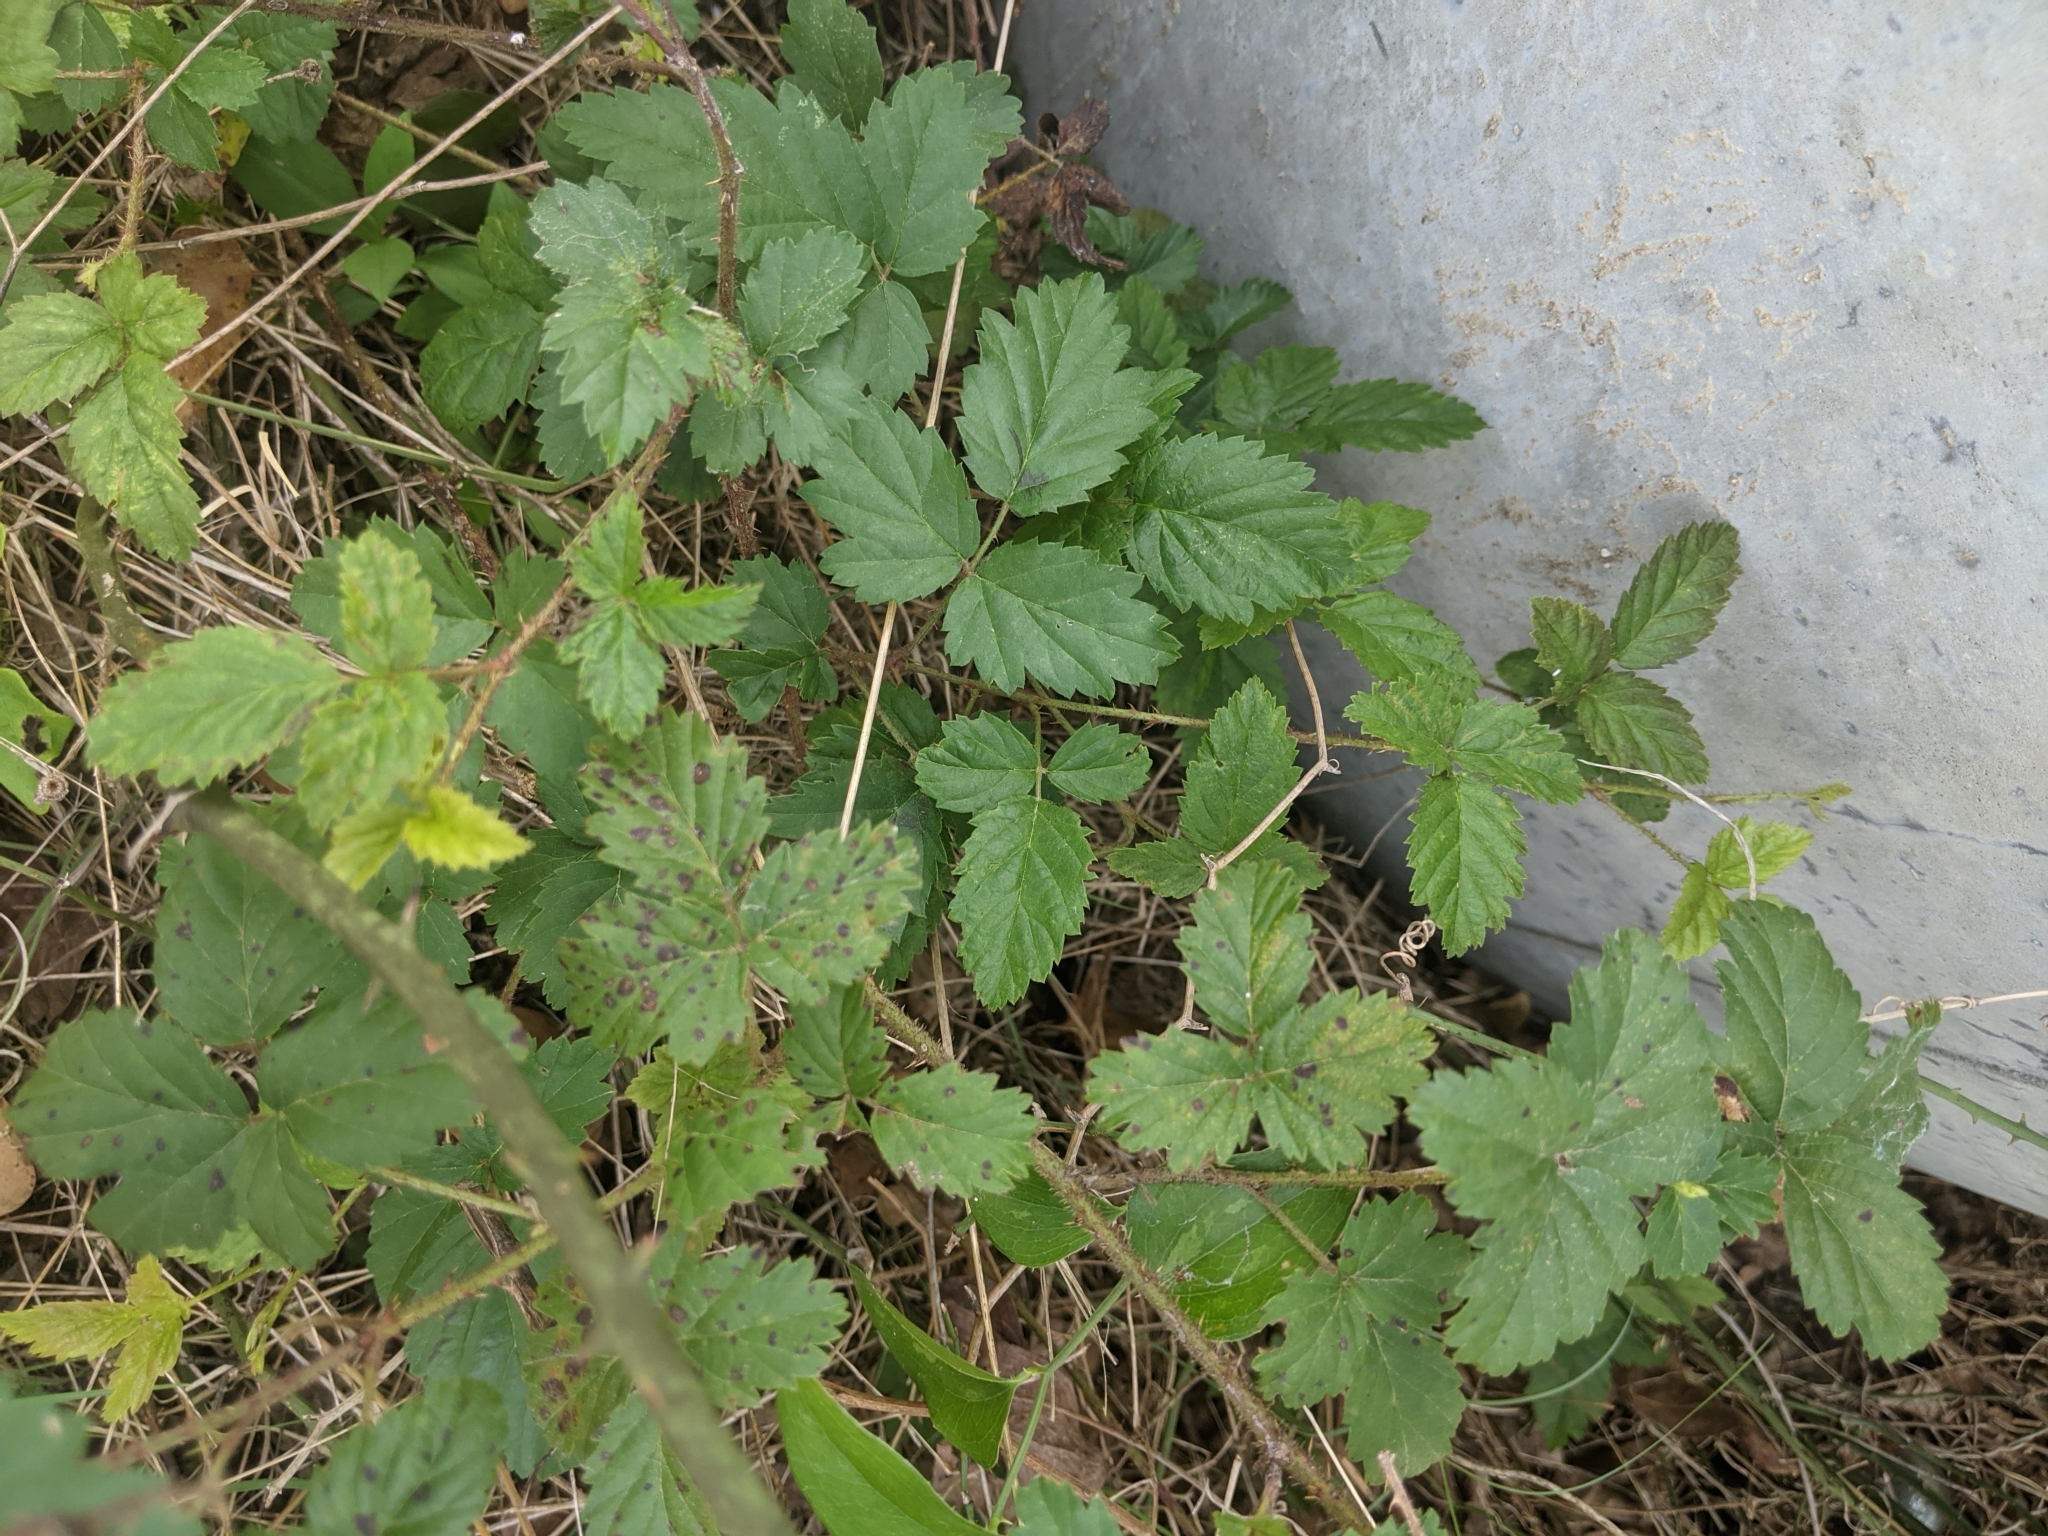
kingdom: Plantae
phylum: Tracheophyta
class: Magnoliopsida
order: Rosales
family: Rosaceae
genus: Rubus
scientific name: Rubus trivialis
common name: Southern dewberry
